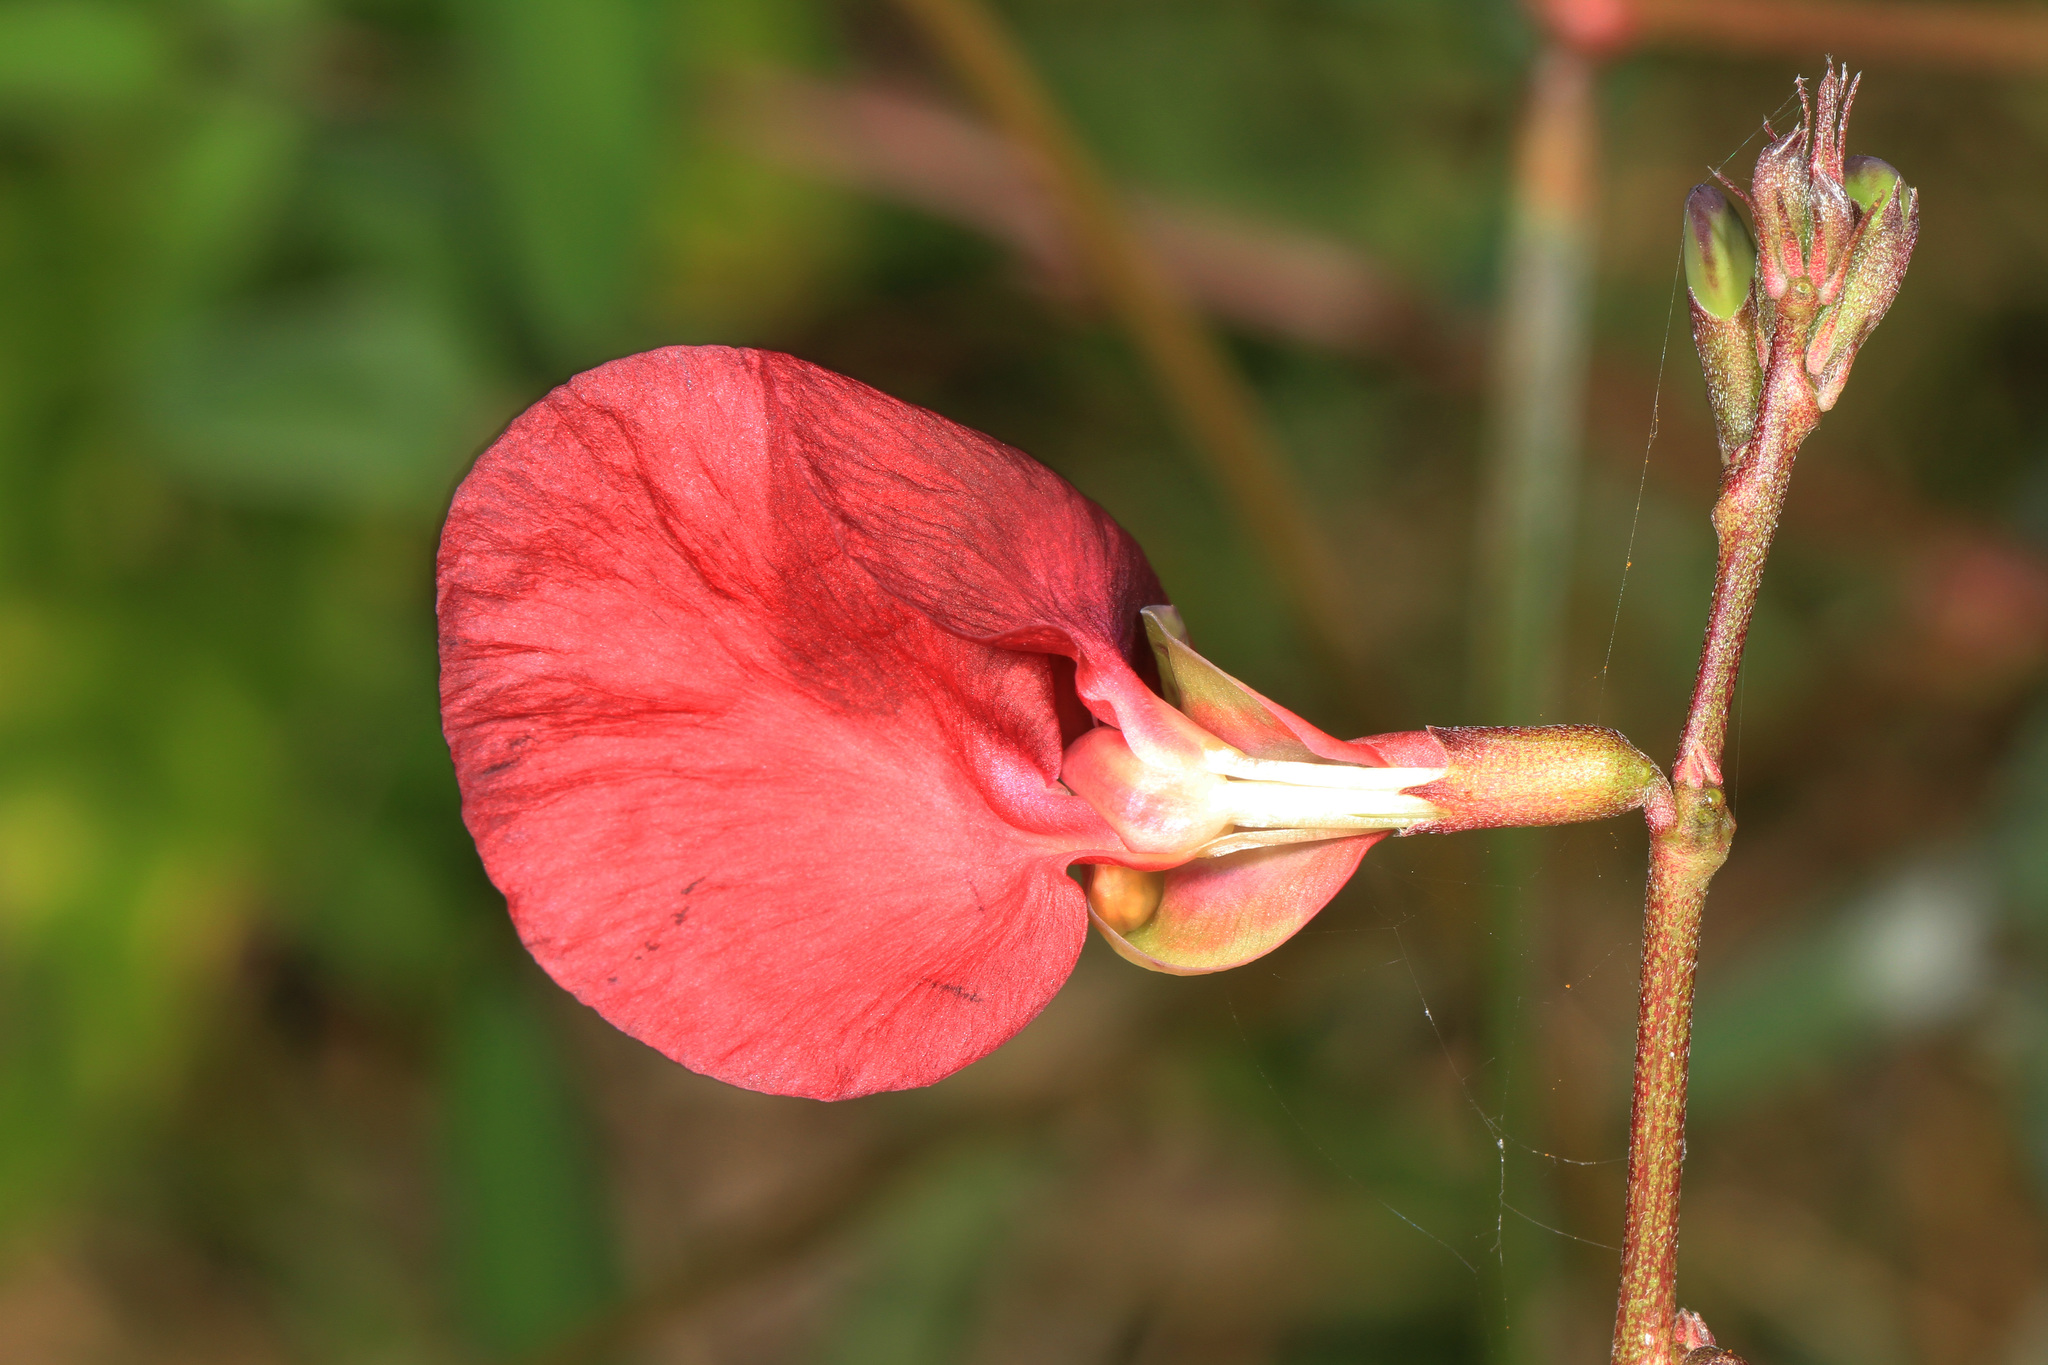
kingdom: Plantae
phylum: Tracheophyta
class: Magnoliopsida
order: Fabales
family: Fabaceae
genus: Macroptilium
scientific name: Macroptilium lathyroides
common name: Wild bushbean
